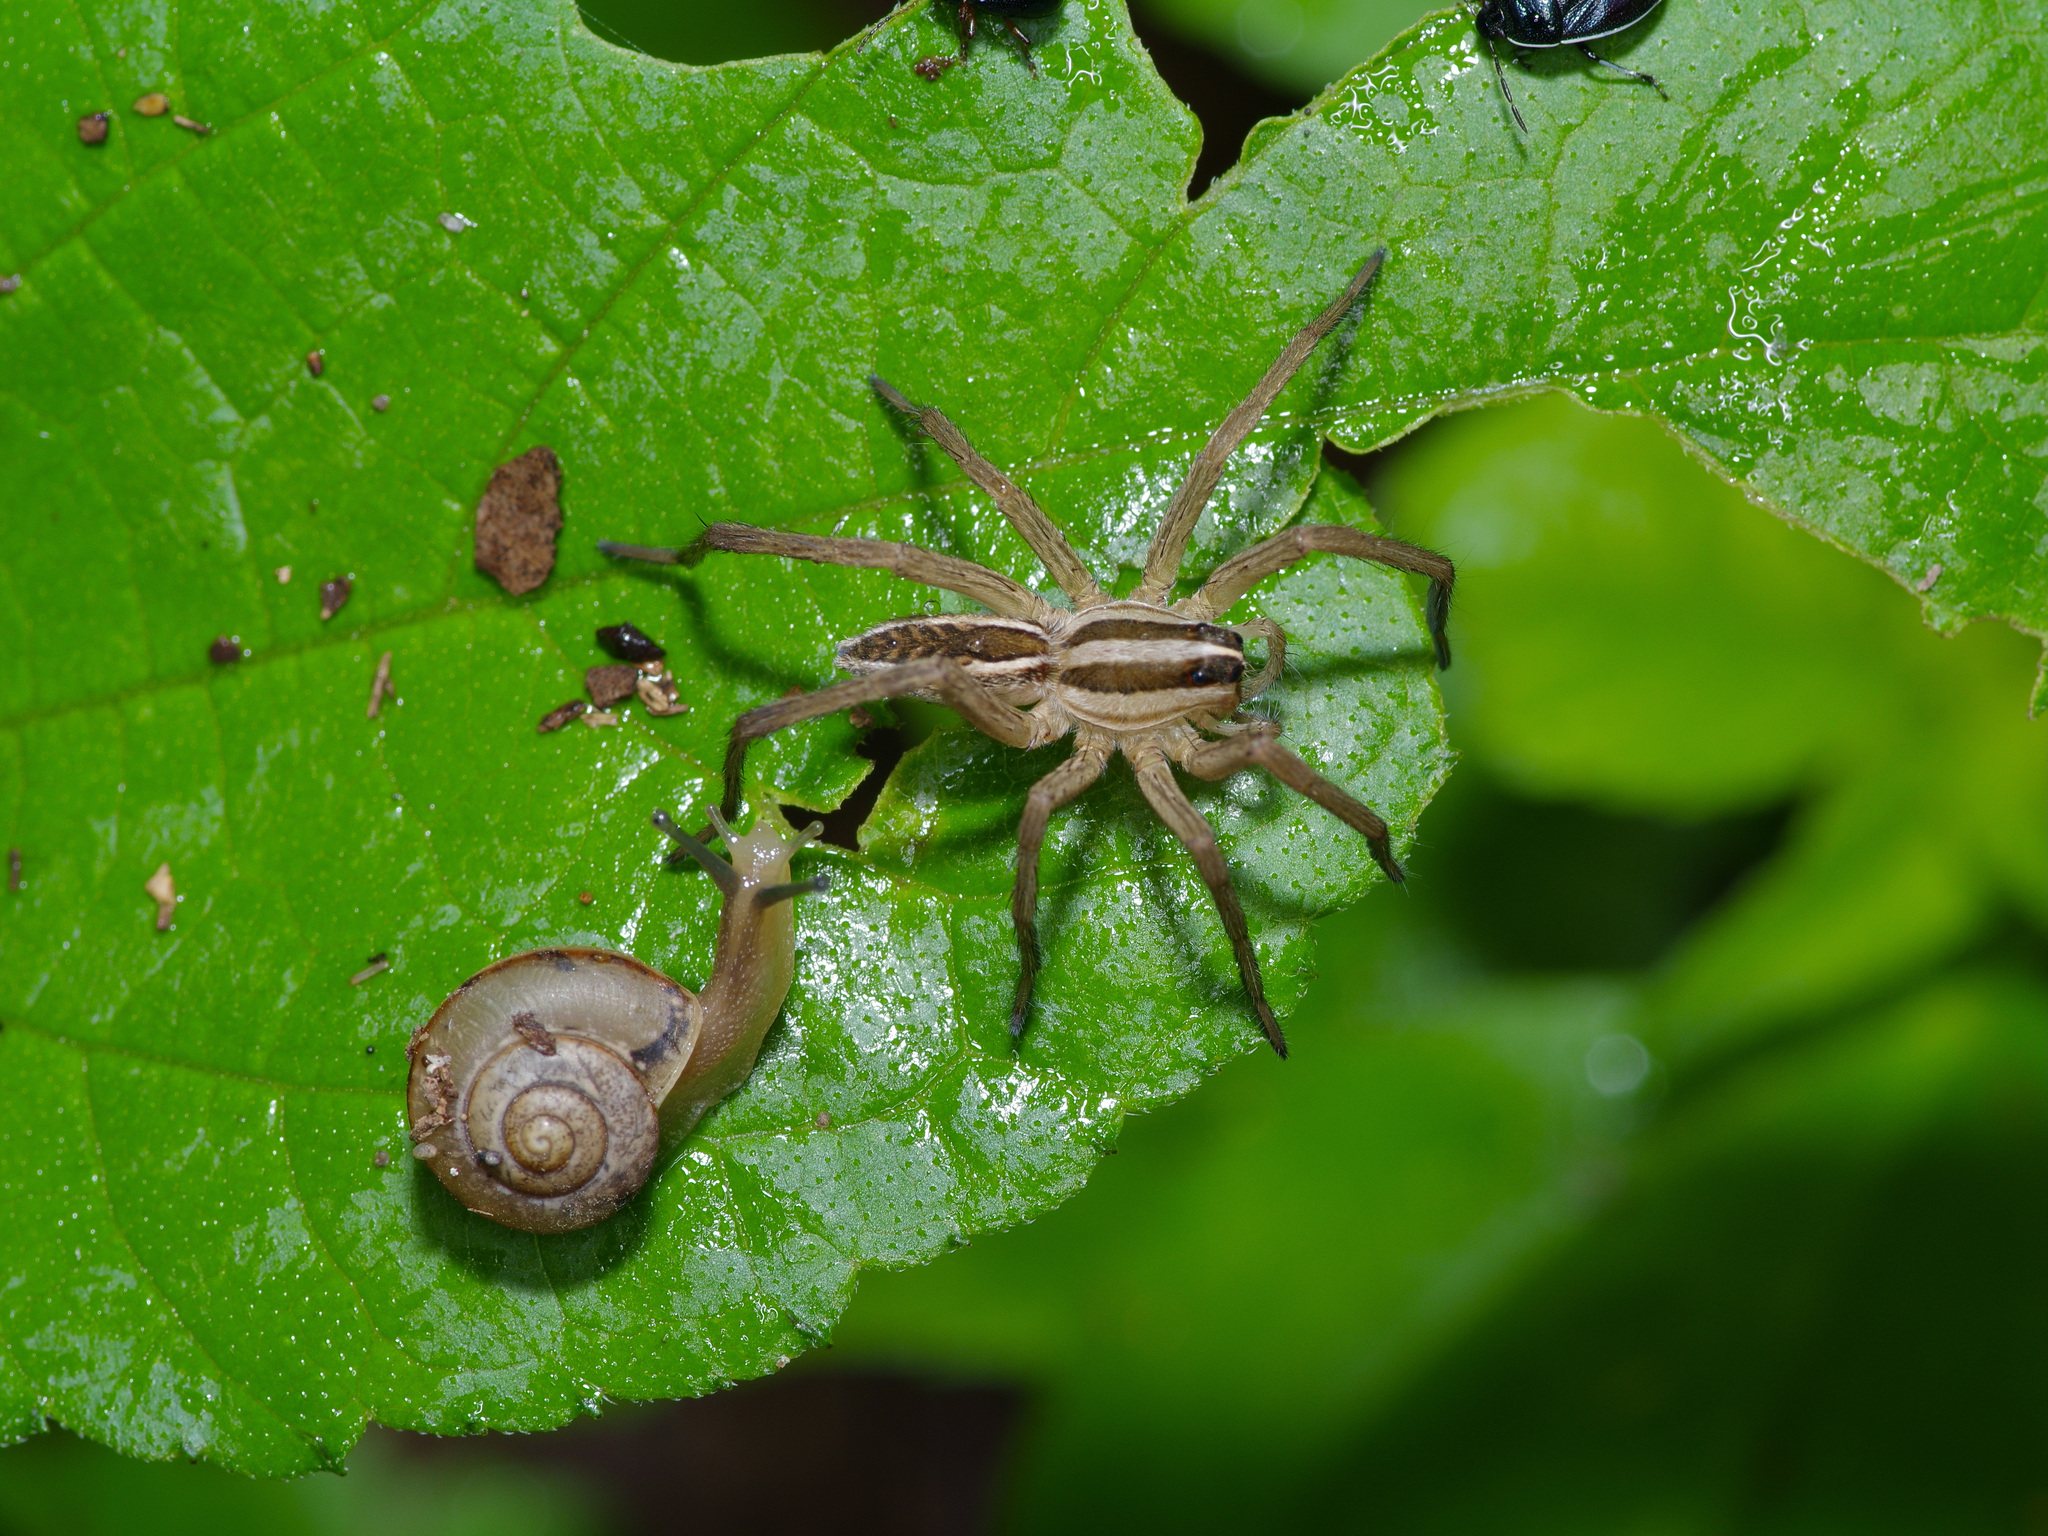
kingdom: Animalia
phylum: Arthropoda
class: Arachnida
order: Araneae
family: Lycosidae
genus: Rabidosa
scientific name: Rabidosa rabida
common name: Rabid wolf spider
